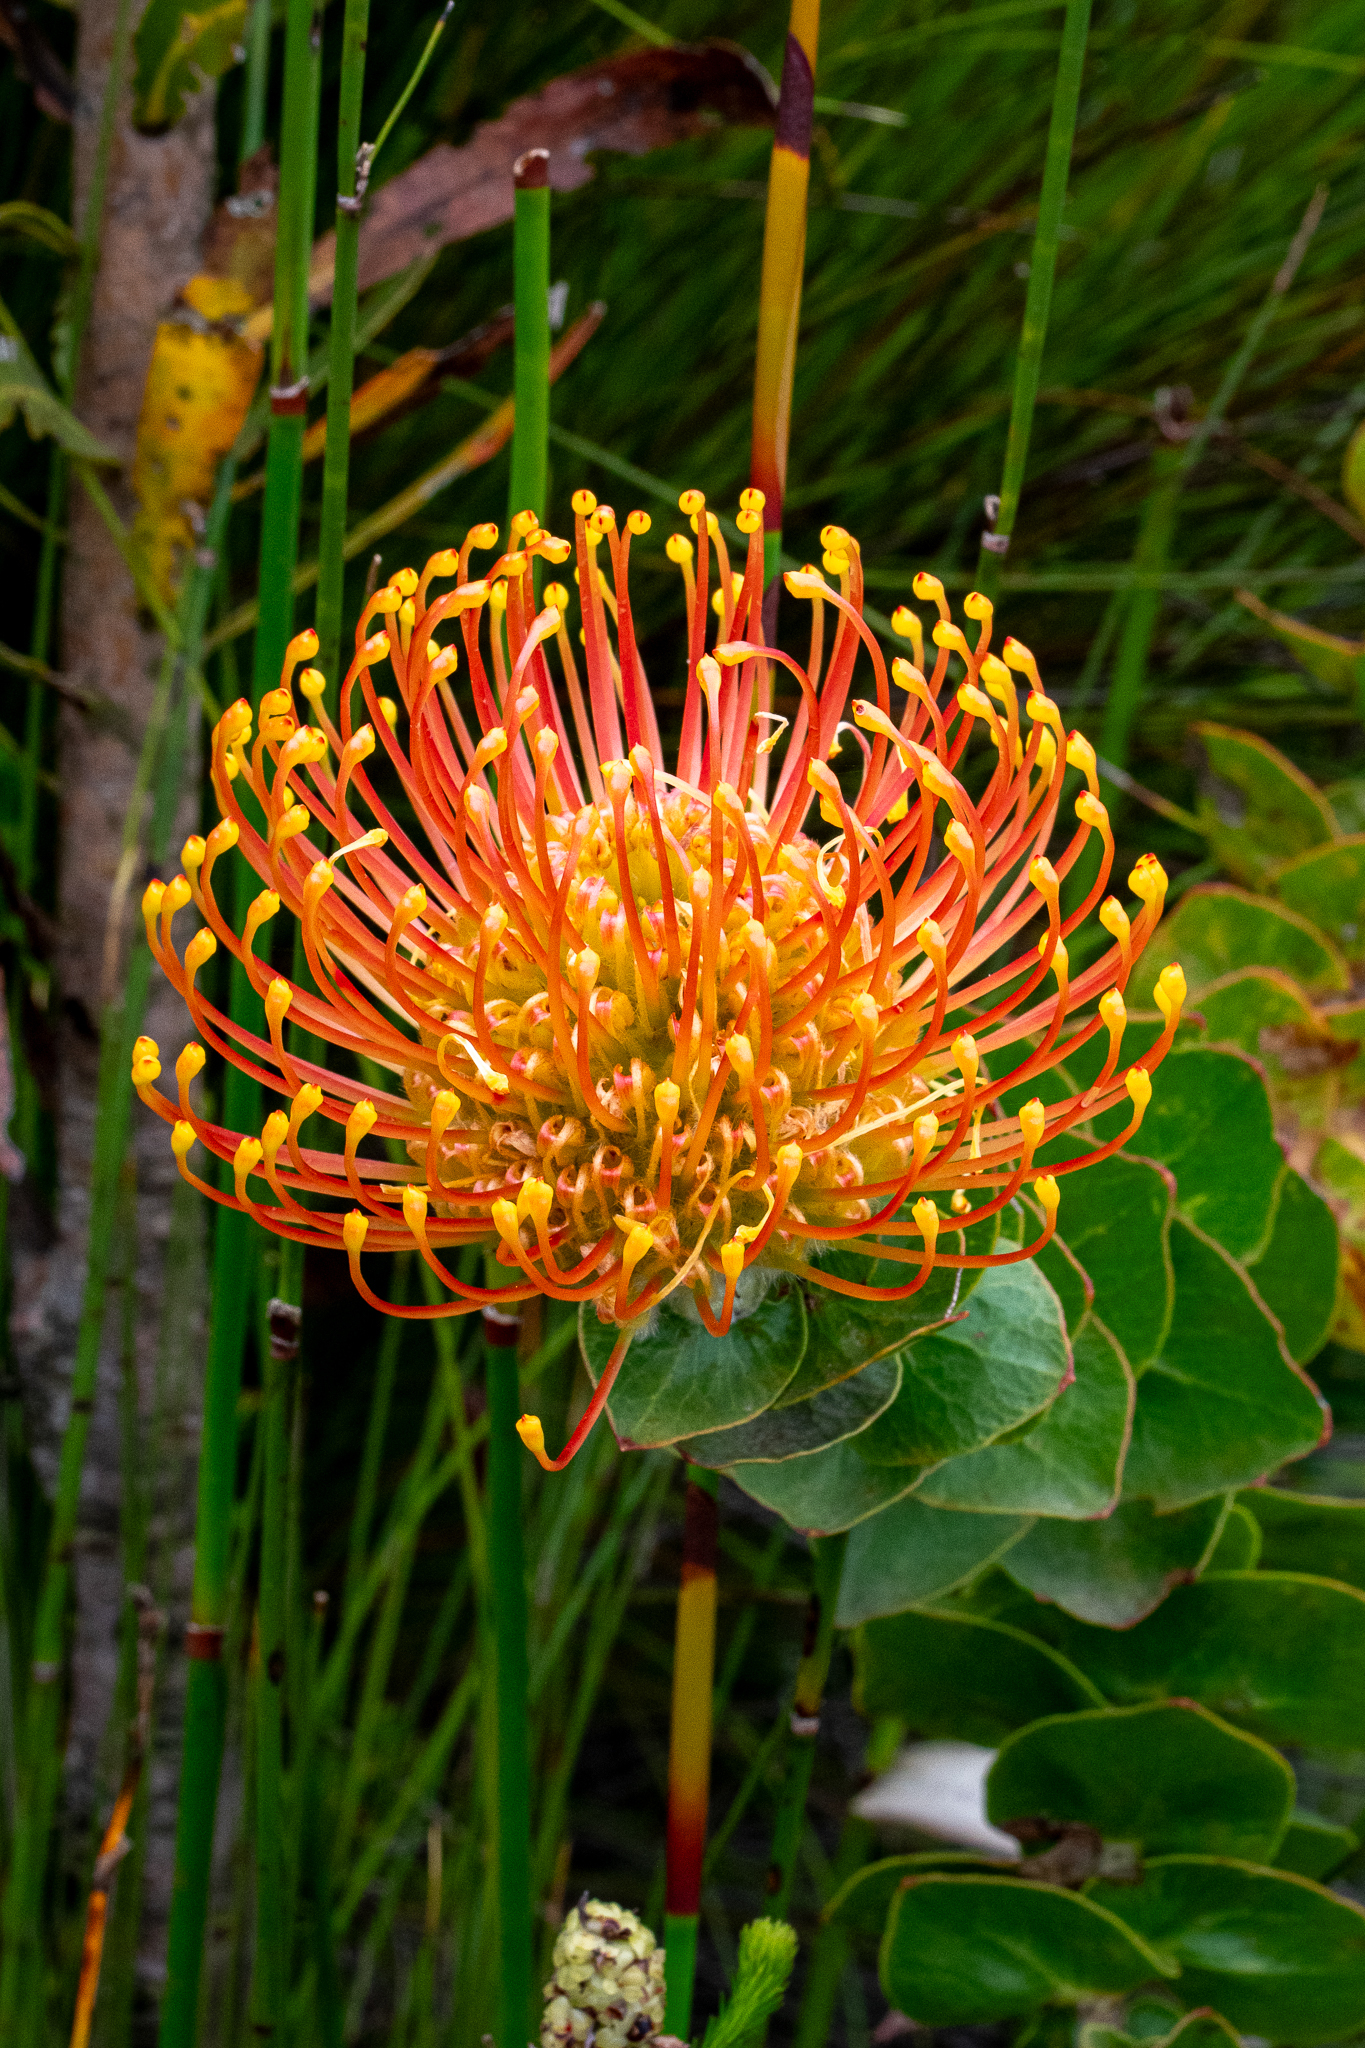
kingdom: Plantae
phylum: Tracheophyta
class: Magnoliopsida
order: Proteales
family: Proteaceae
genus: Leucospermum
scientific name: Leucospermum cordifolium
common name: Red pincushion-protea
